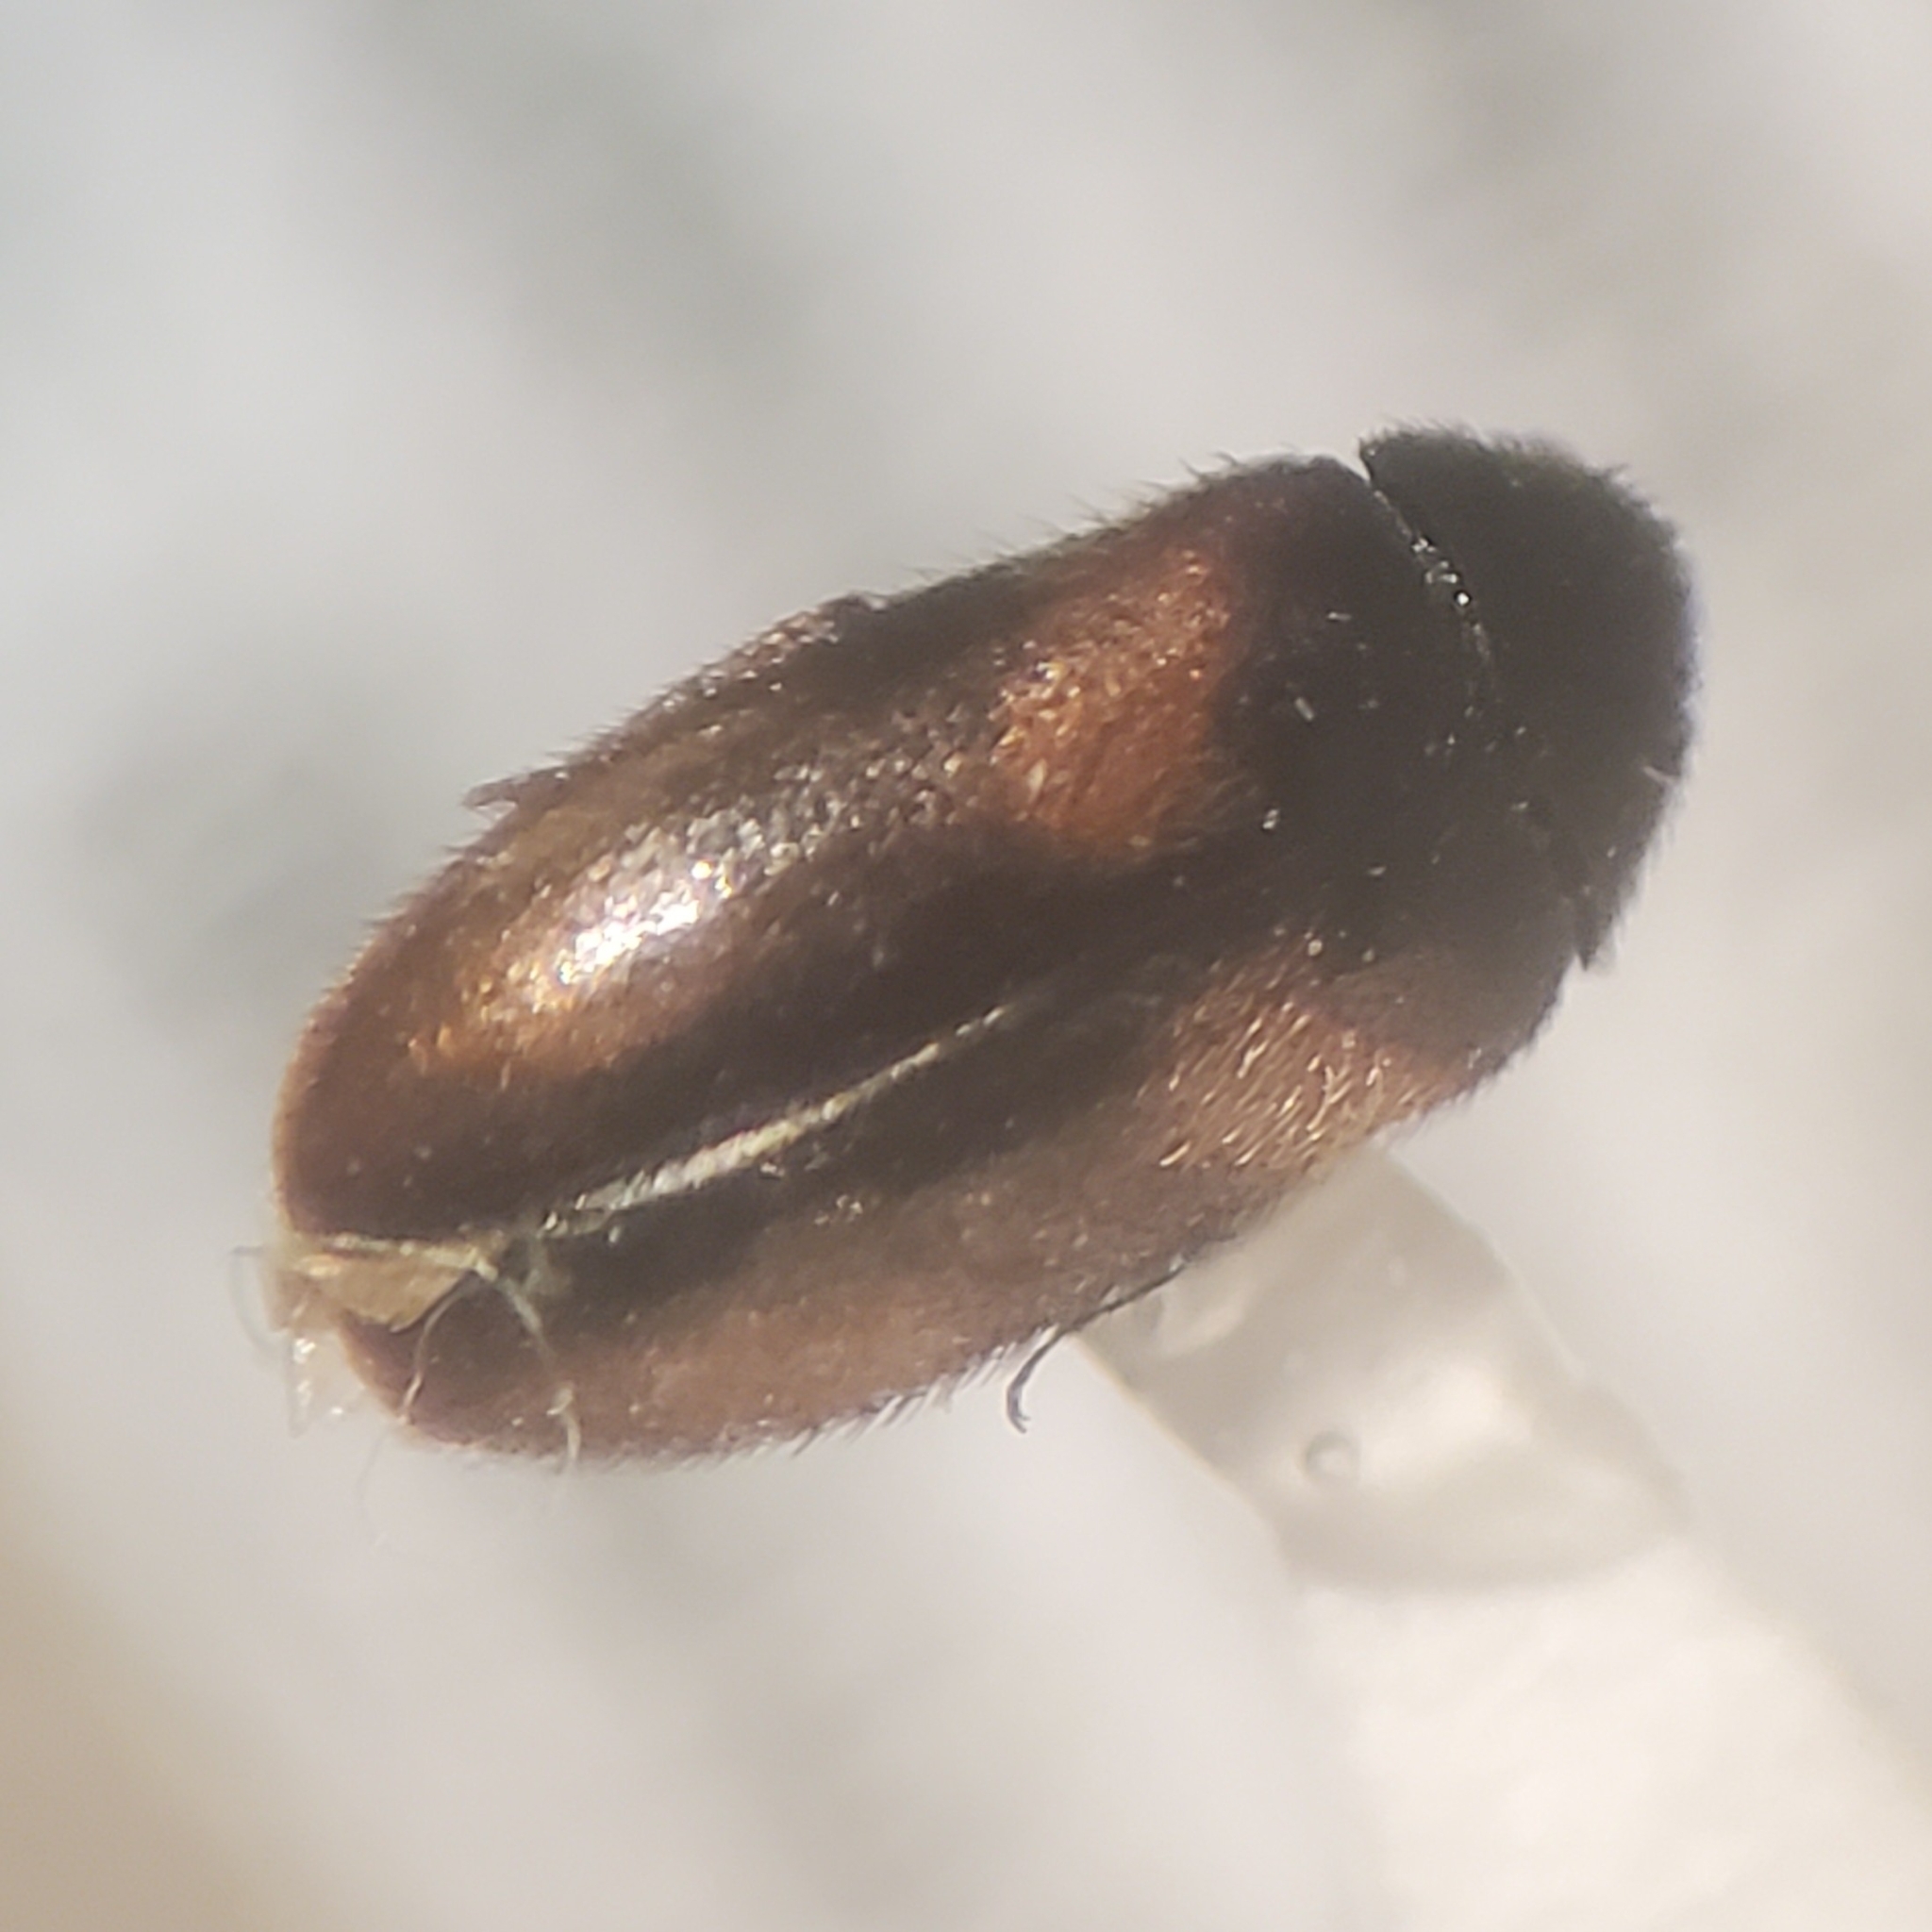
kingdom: Animalia
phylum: Arthropoda
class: Insecta
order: Coleoptera
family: Dermestidae
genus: Reesa
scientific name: Reesa vespulae
